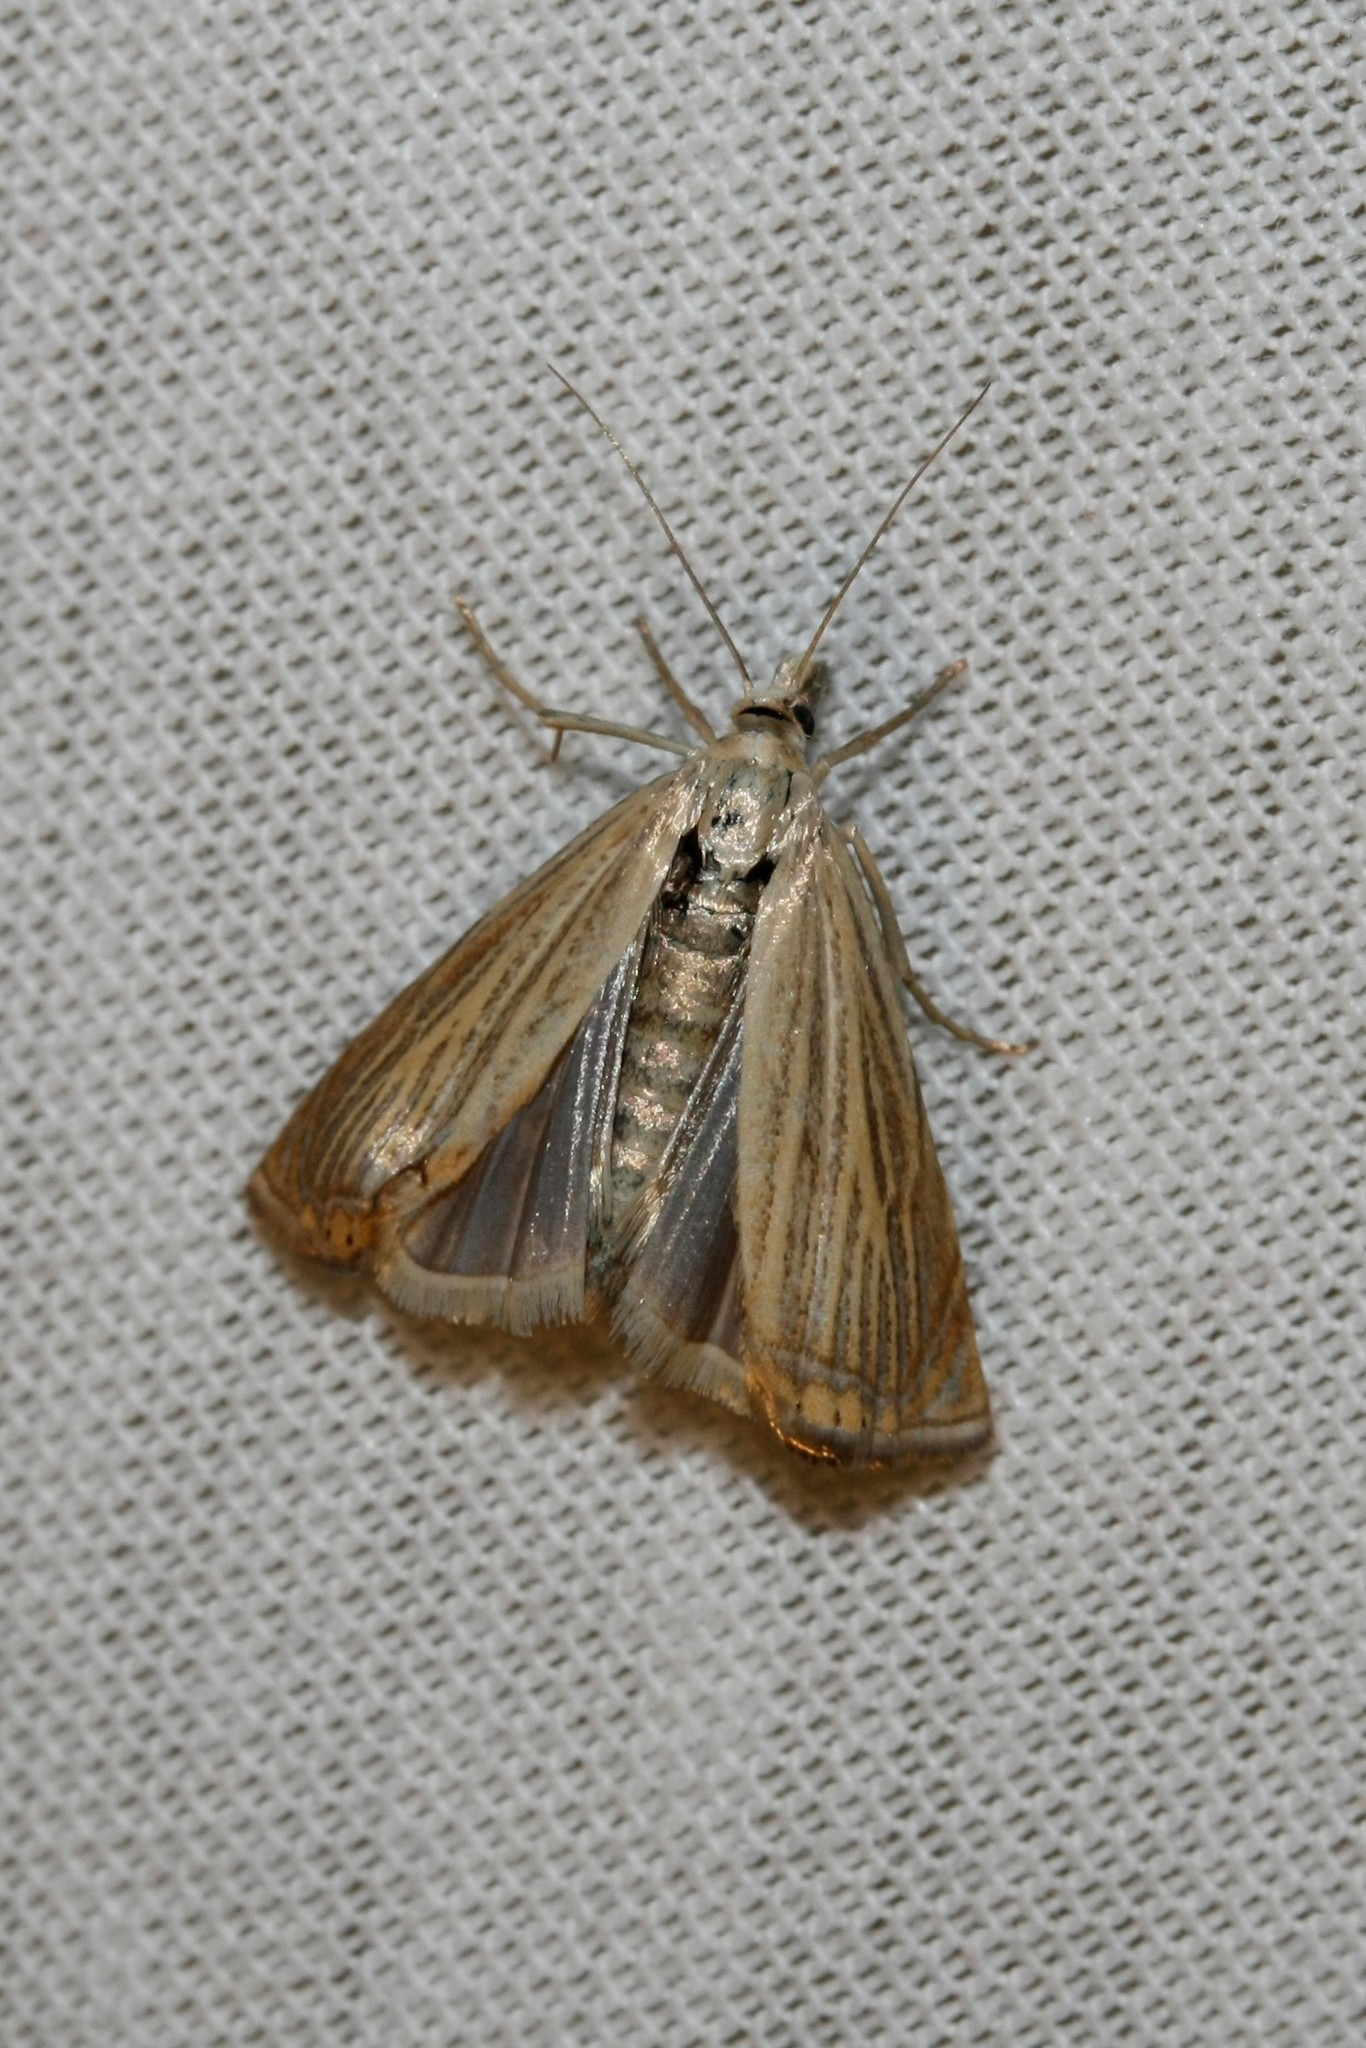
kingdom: Animalia
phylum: Arthropoda
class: Insecta
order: Lepidoptera
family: Crambidae
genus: Chrysoteuchia
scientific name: Chrysoteuchia culmella
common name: Garden grass-veneer
